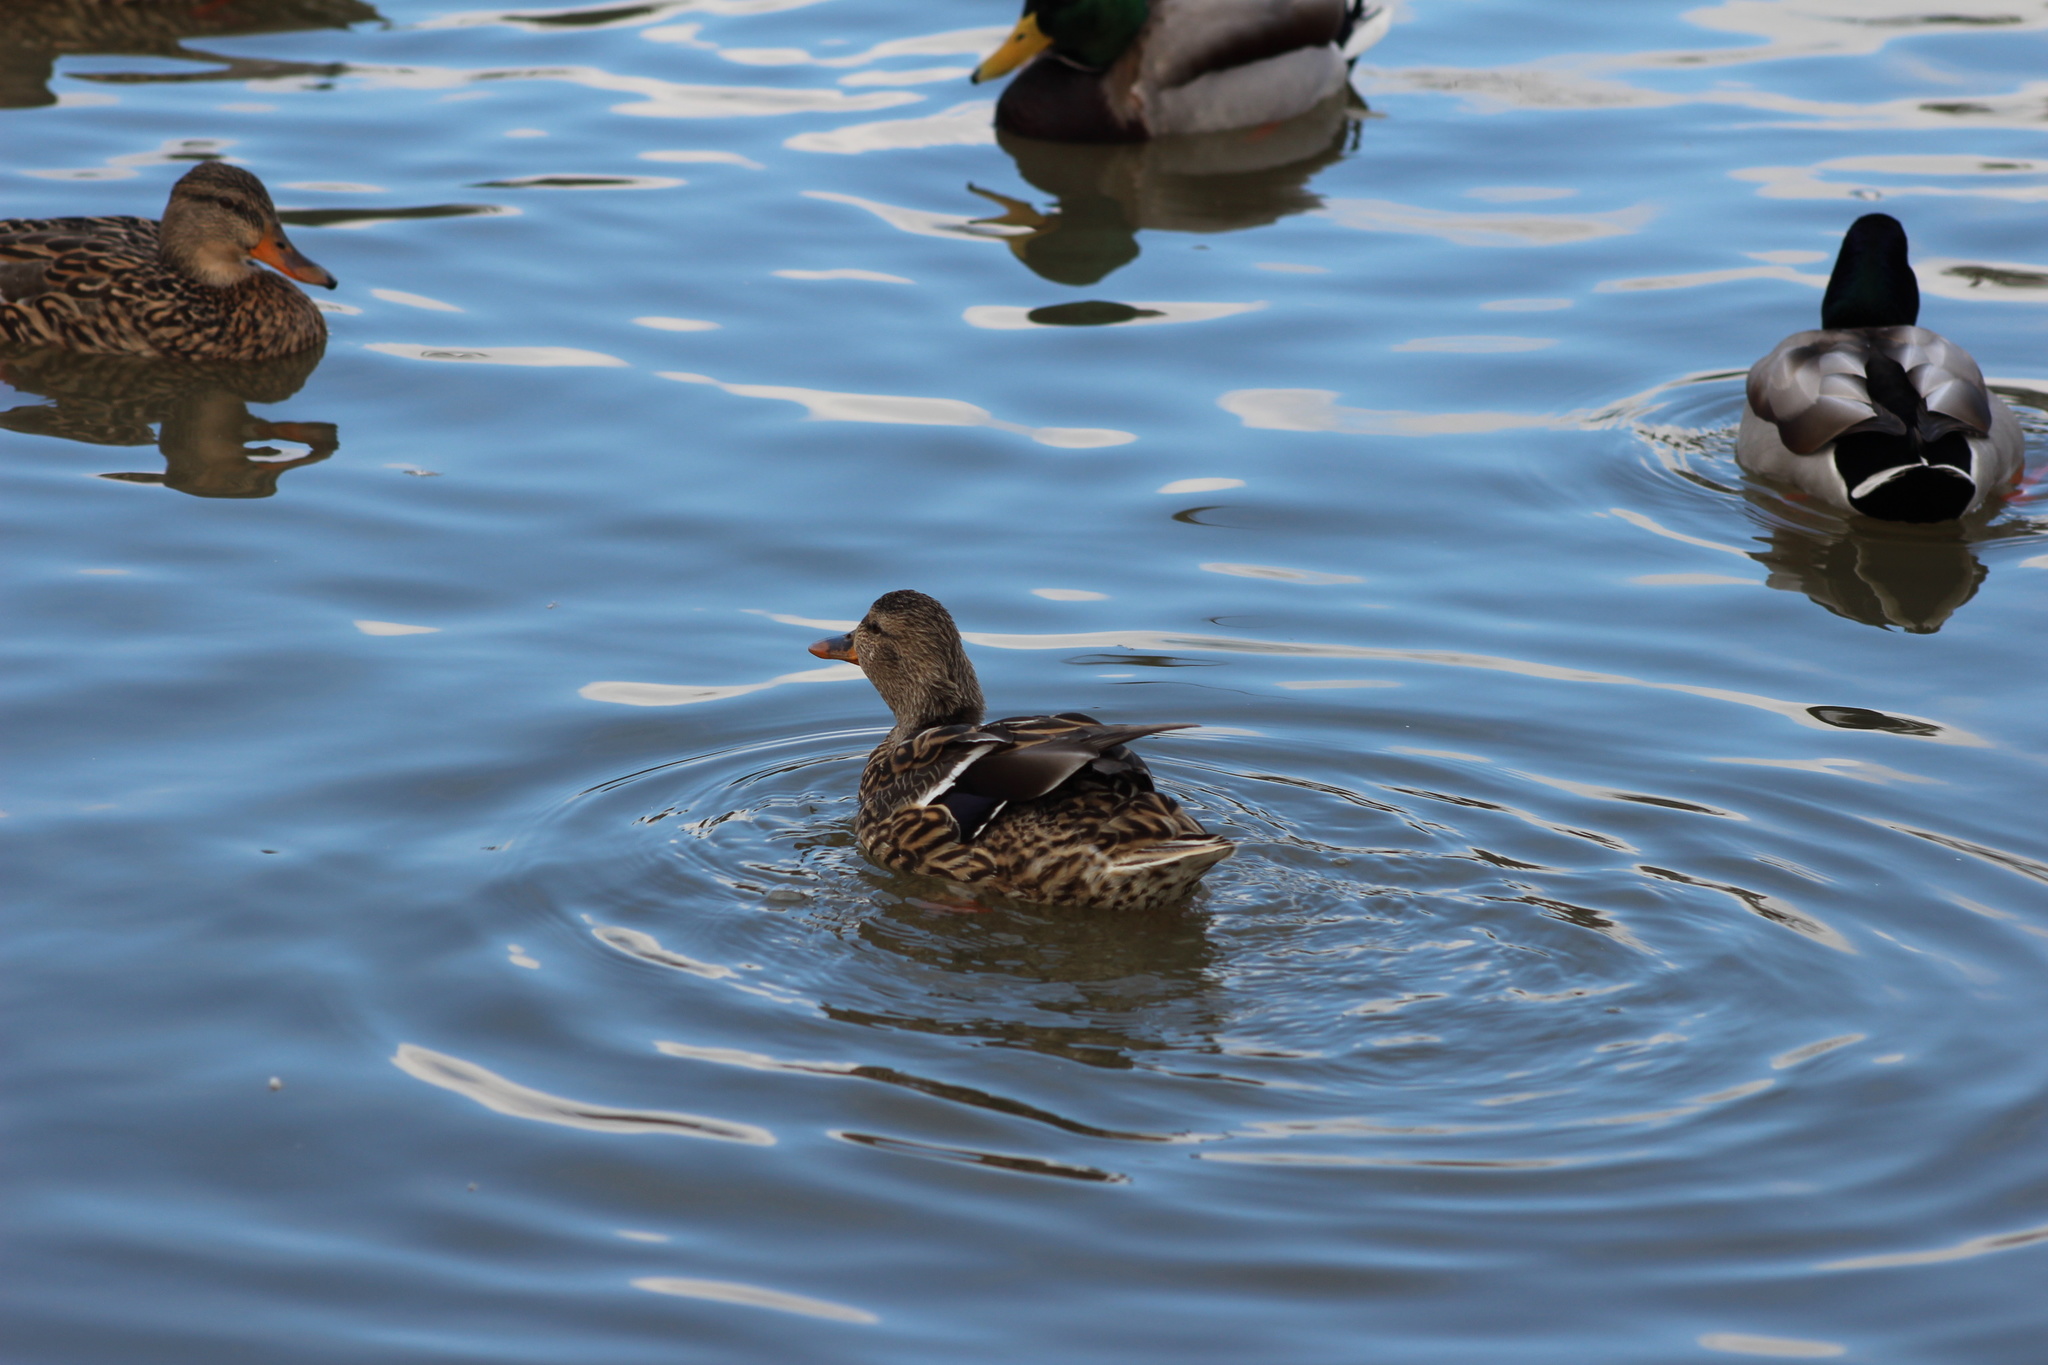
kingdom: Animalia
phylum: Chordata
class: Aves
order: Anseriformes
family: Anatidae
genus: Anas
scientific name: Anas platyrhynchos
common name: Mallard
